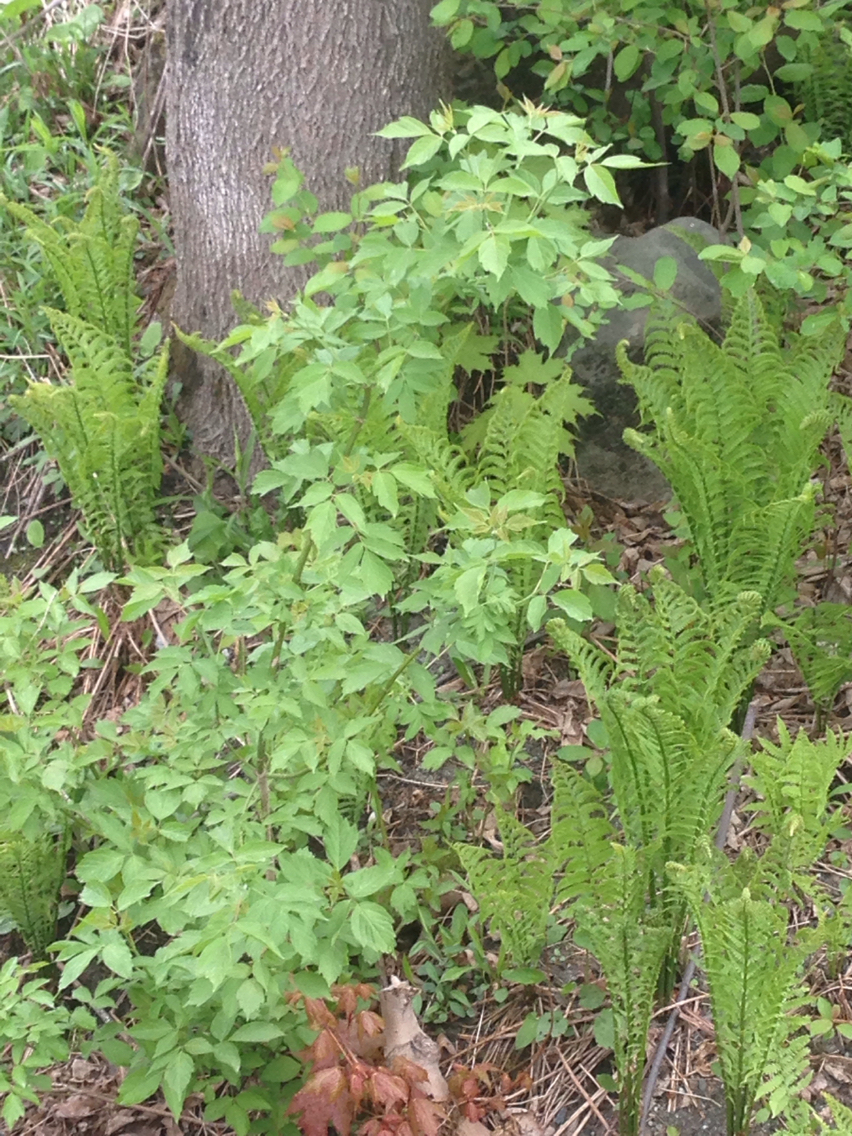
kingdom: Plantae
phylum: Tracheophyta
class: Magnoliopsida
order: Sapindales
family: Sapindaceae
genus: Acer
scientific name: Acer negundo
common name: Ashleaf maple
